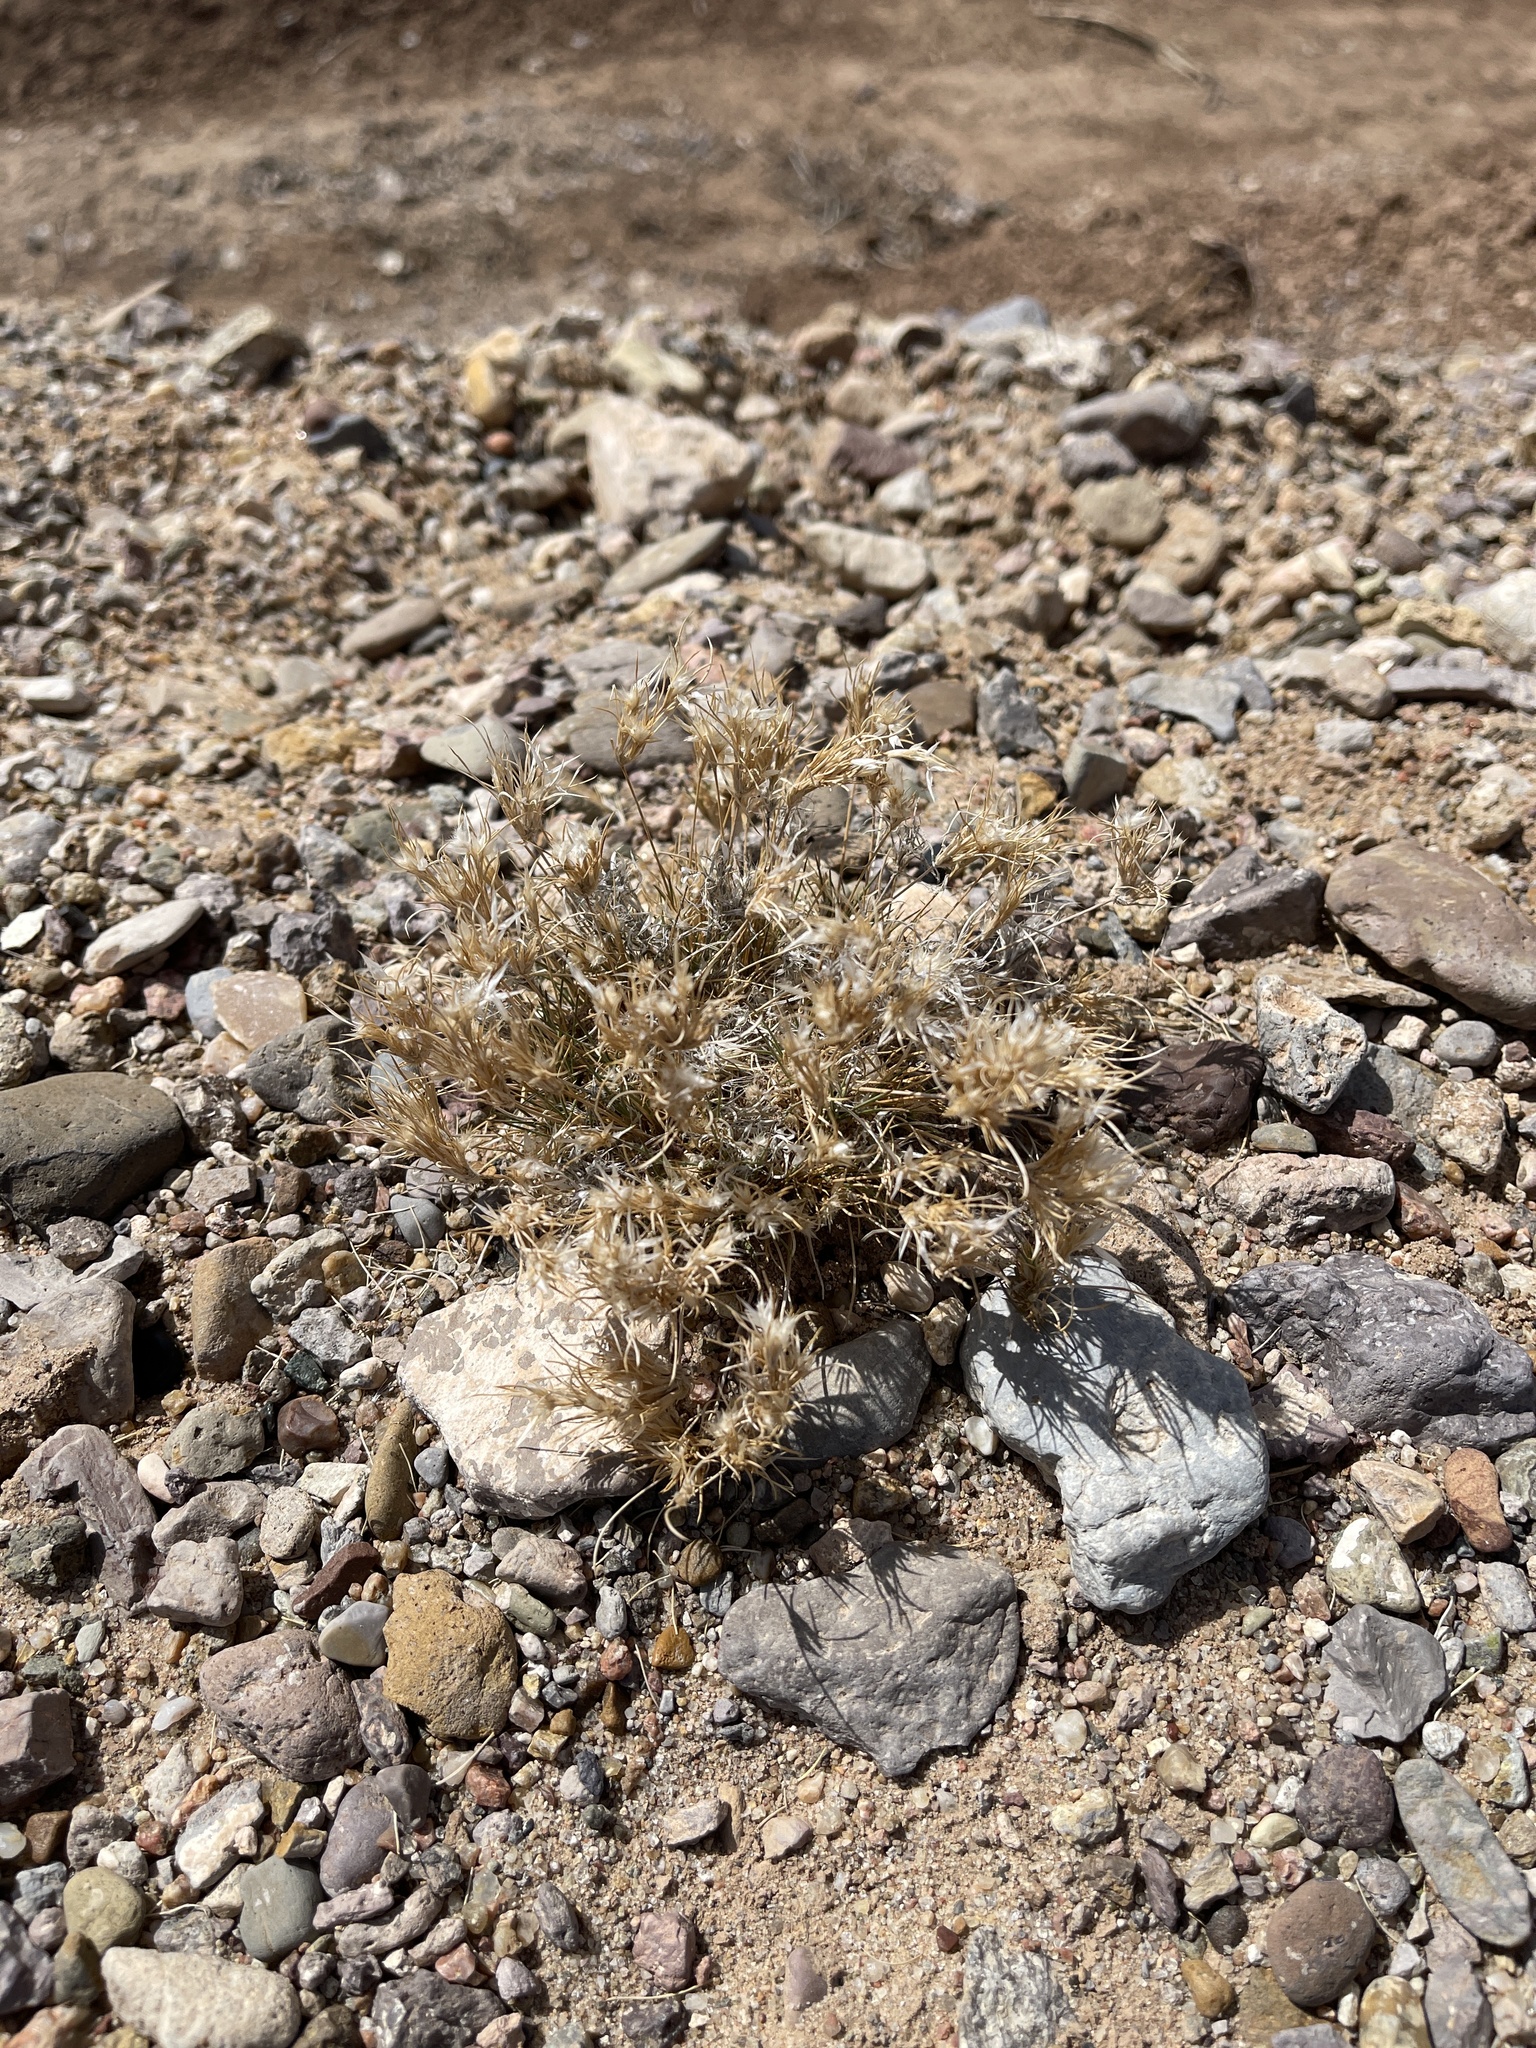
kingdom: Plantae
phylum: Tracheophyta
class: Liliopsida
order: Poales
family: Poaceae
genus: Dasyochloa
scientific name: Dasyochloa pulchella
